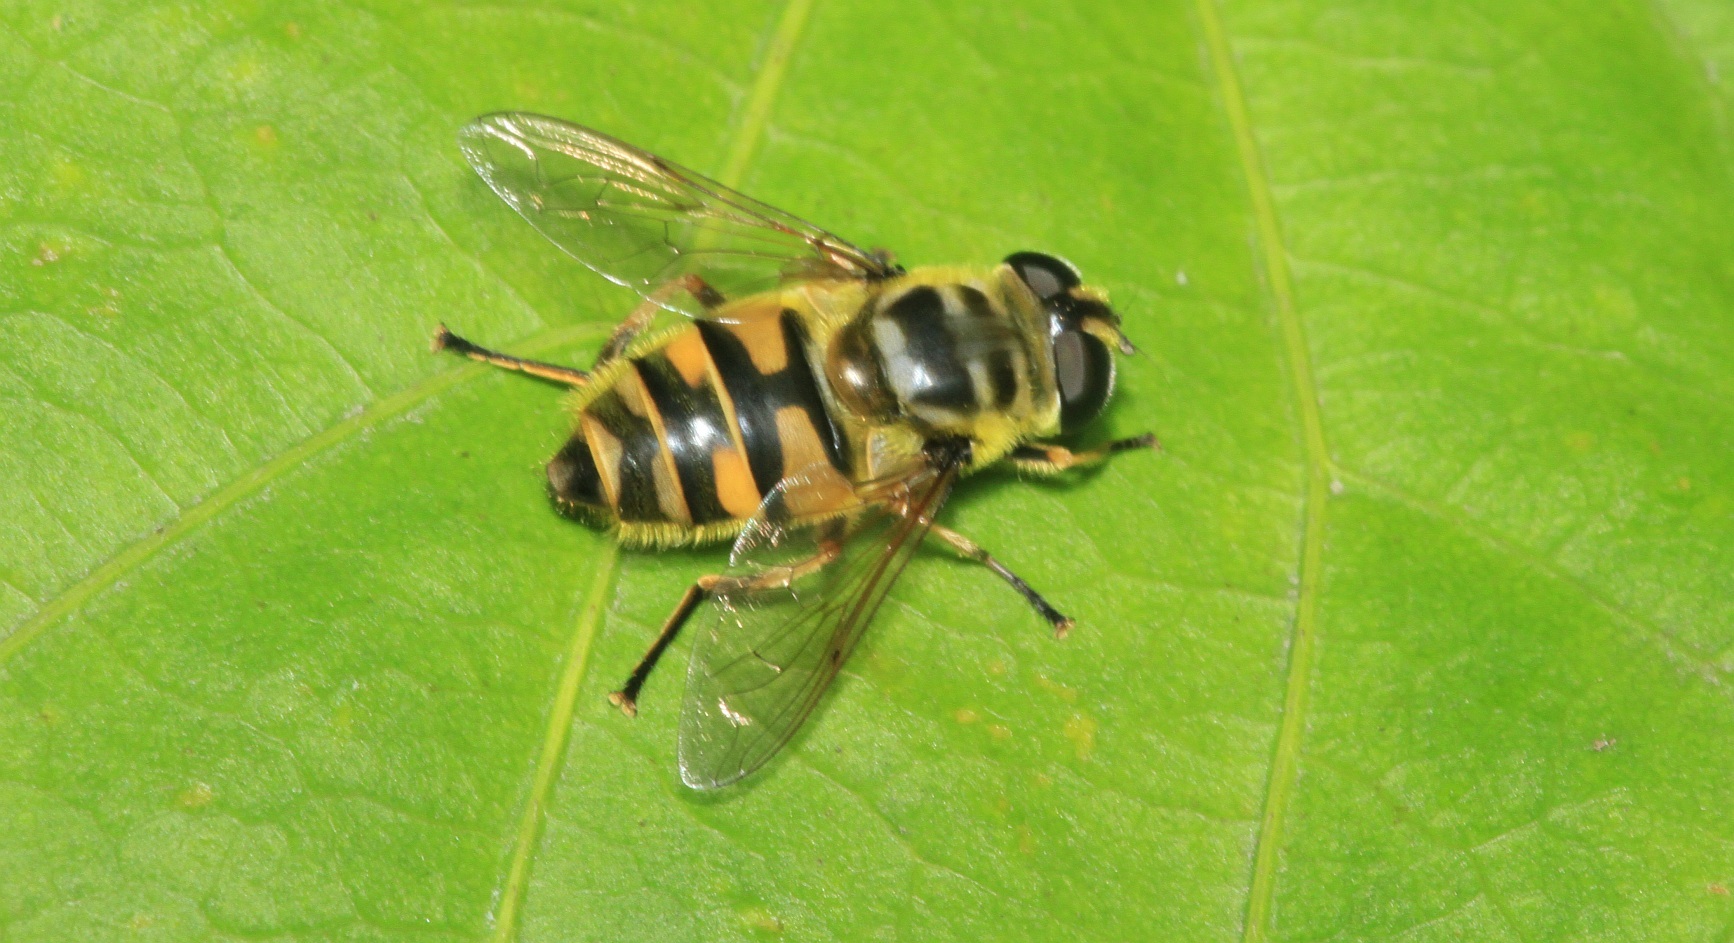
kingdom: Animalia
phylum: Arthropoda
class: Insecta
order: Diptera
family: Syrphidae
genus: Myathropa
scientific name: Myathropa florea
